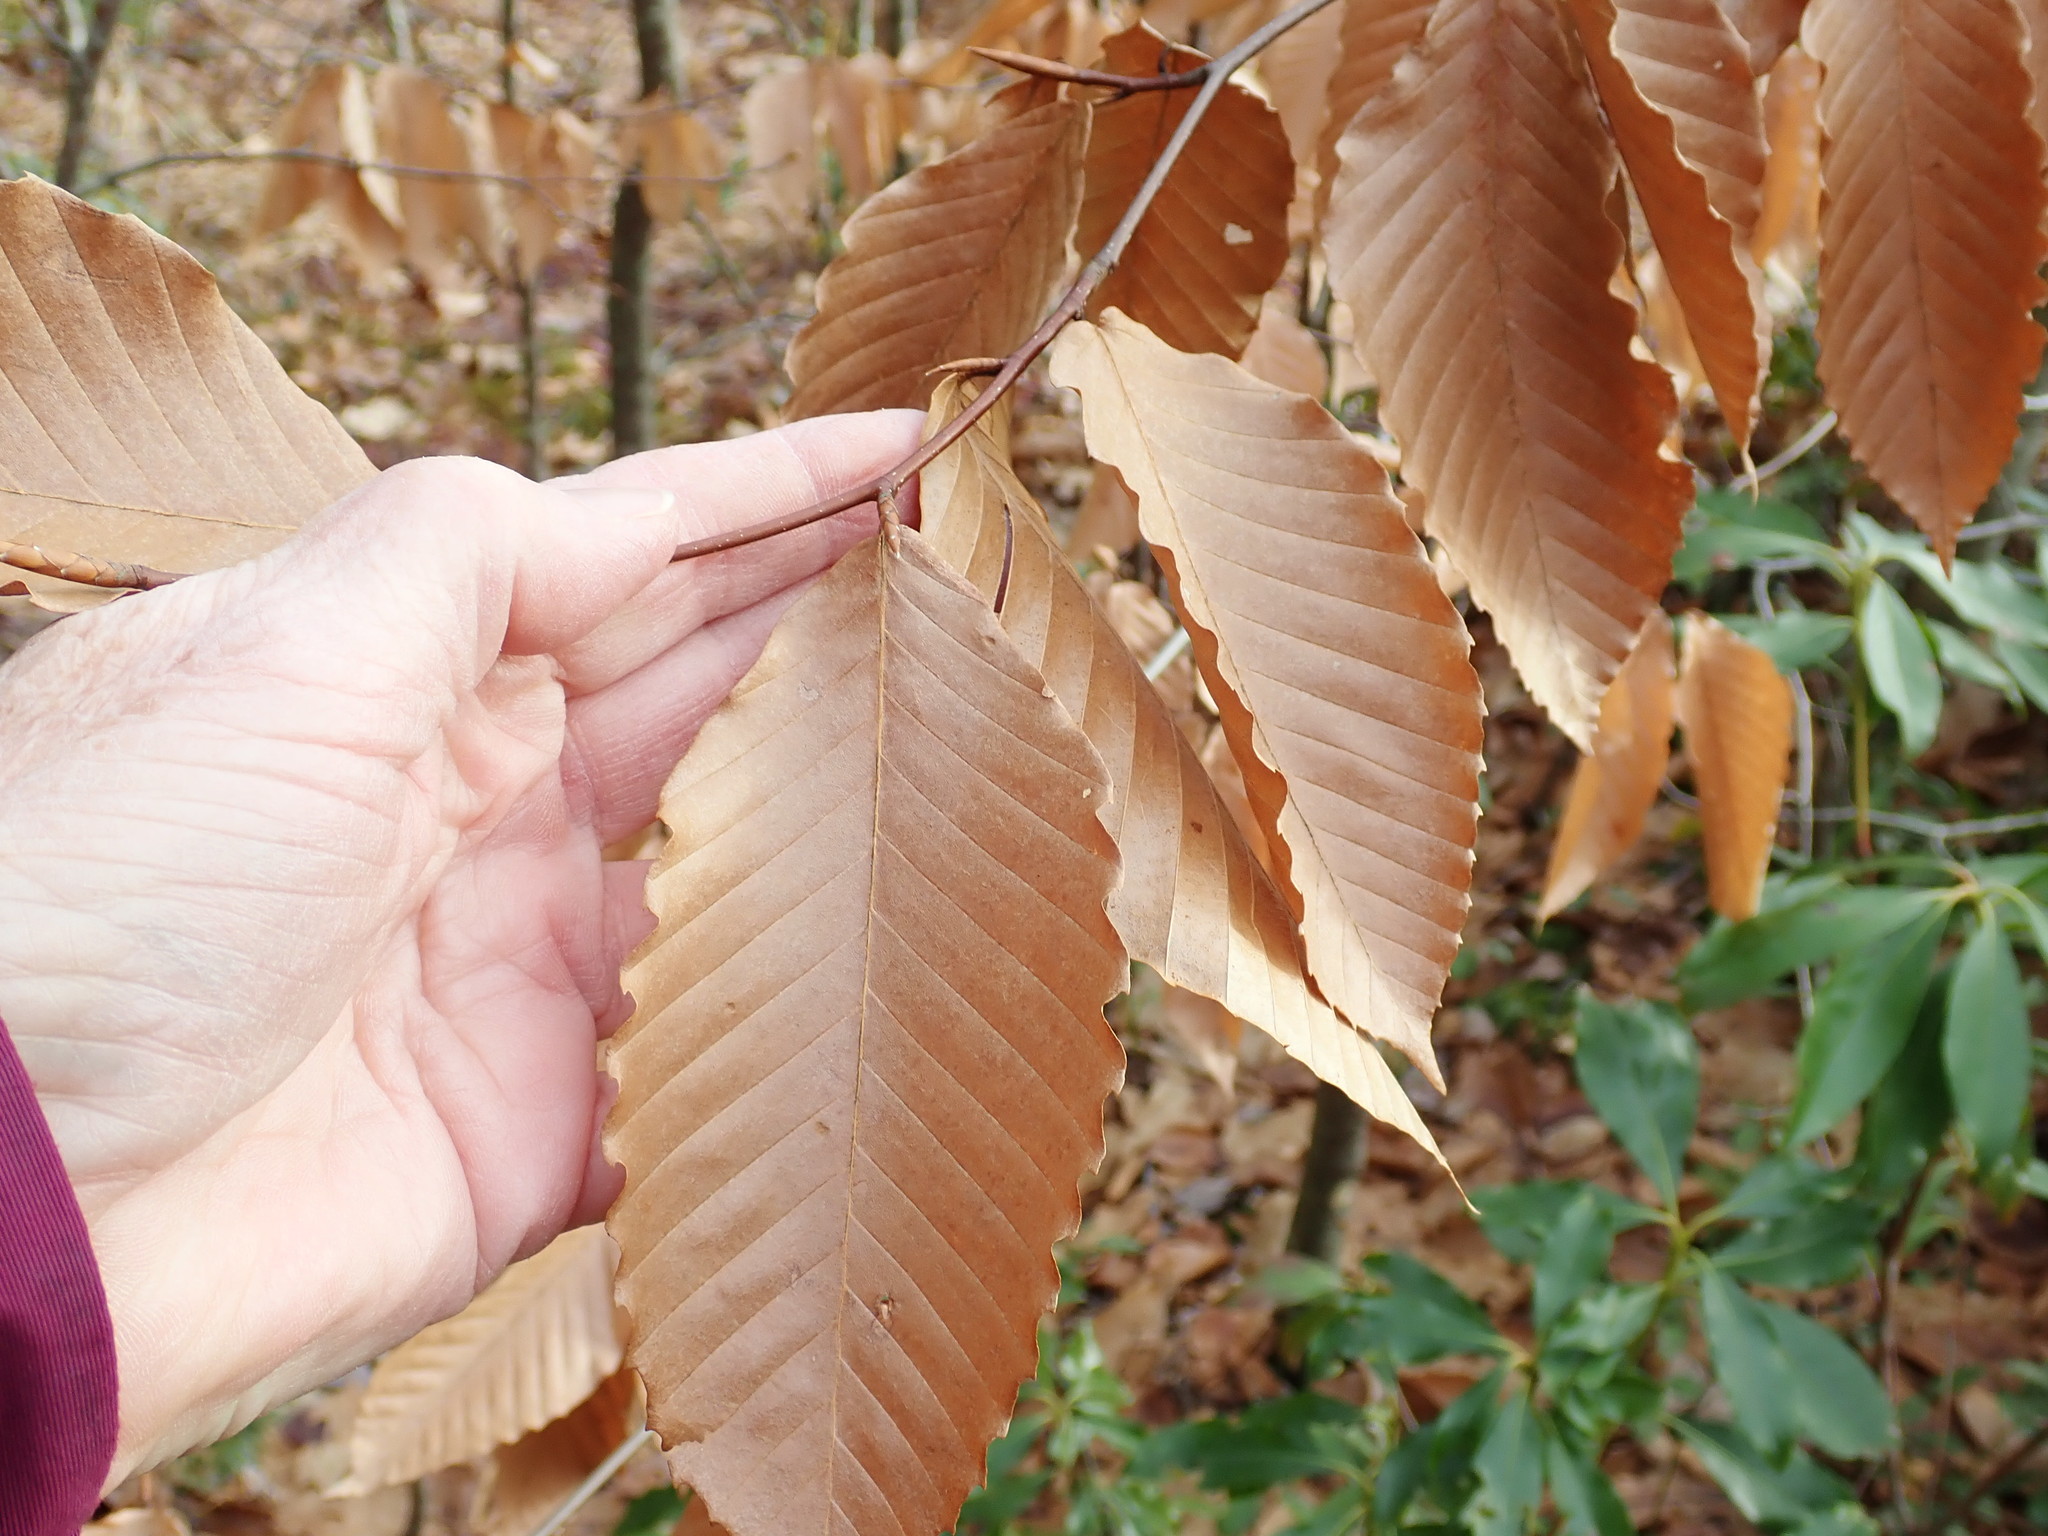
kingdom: Plantae
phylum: Tracheophyta
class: Magnoliopsida
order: Fagales
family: Fagaceae
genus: Fagus
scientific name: Fagus grandifolia
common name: American beech
